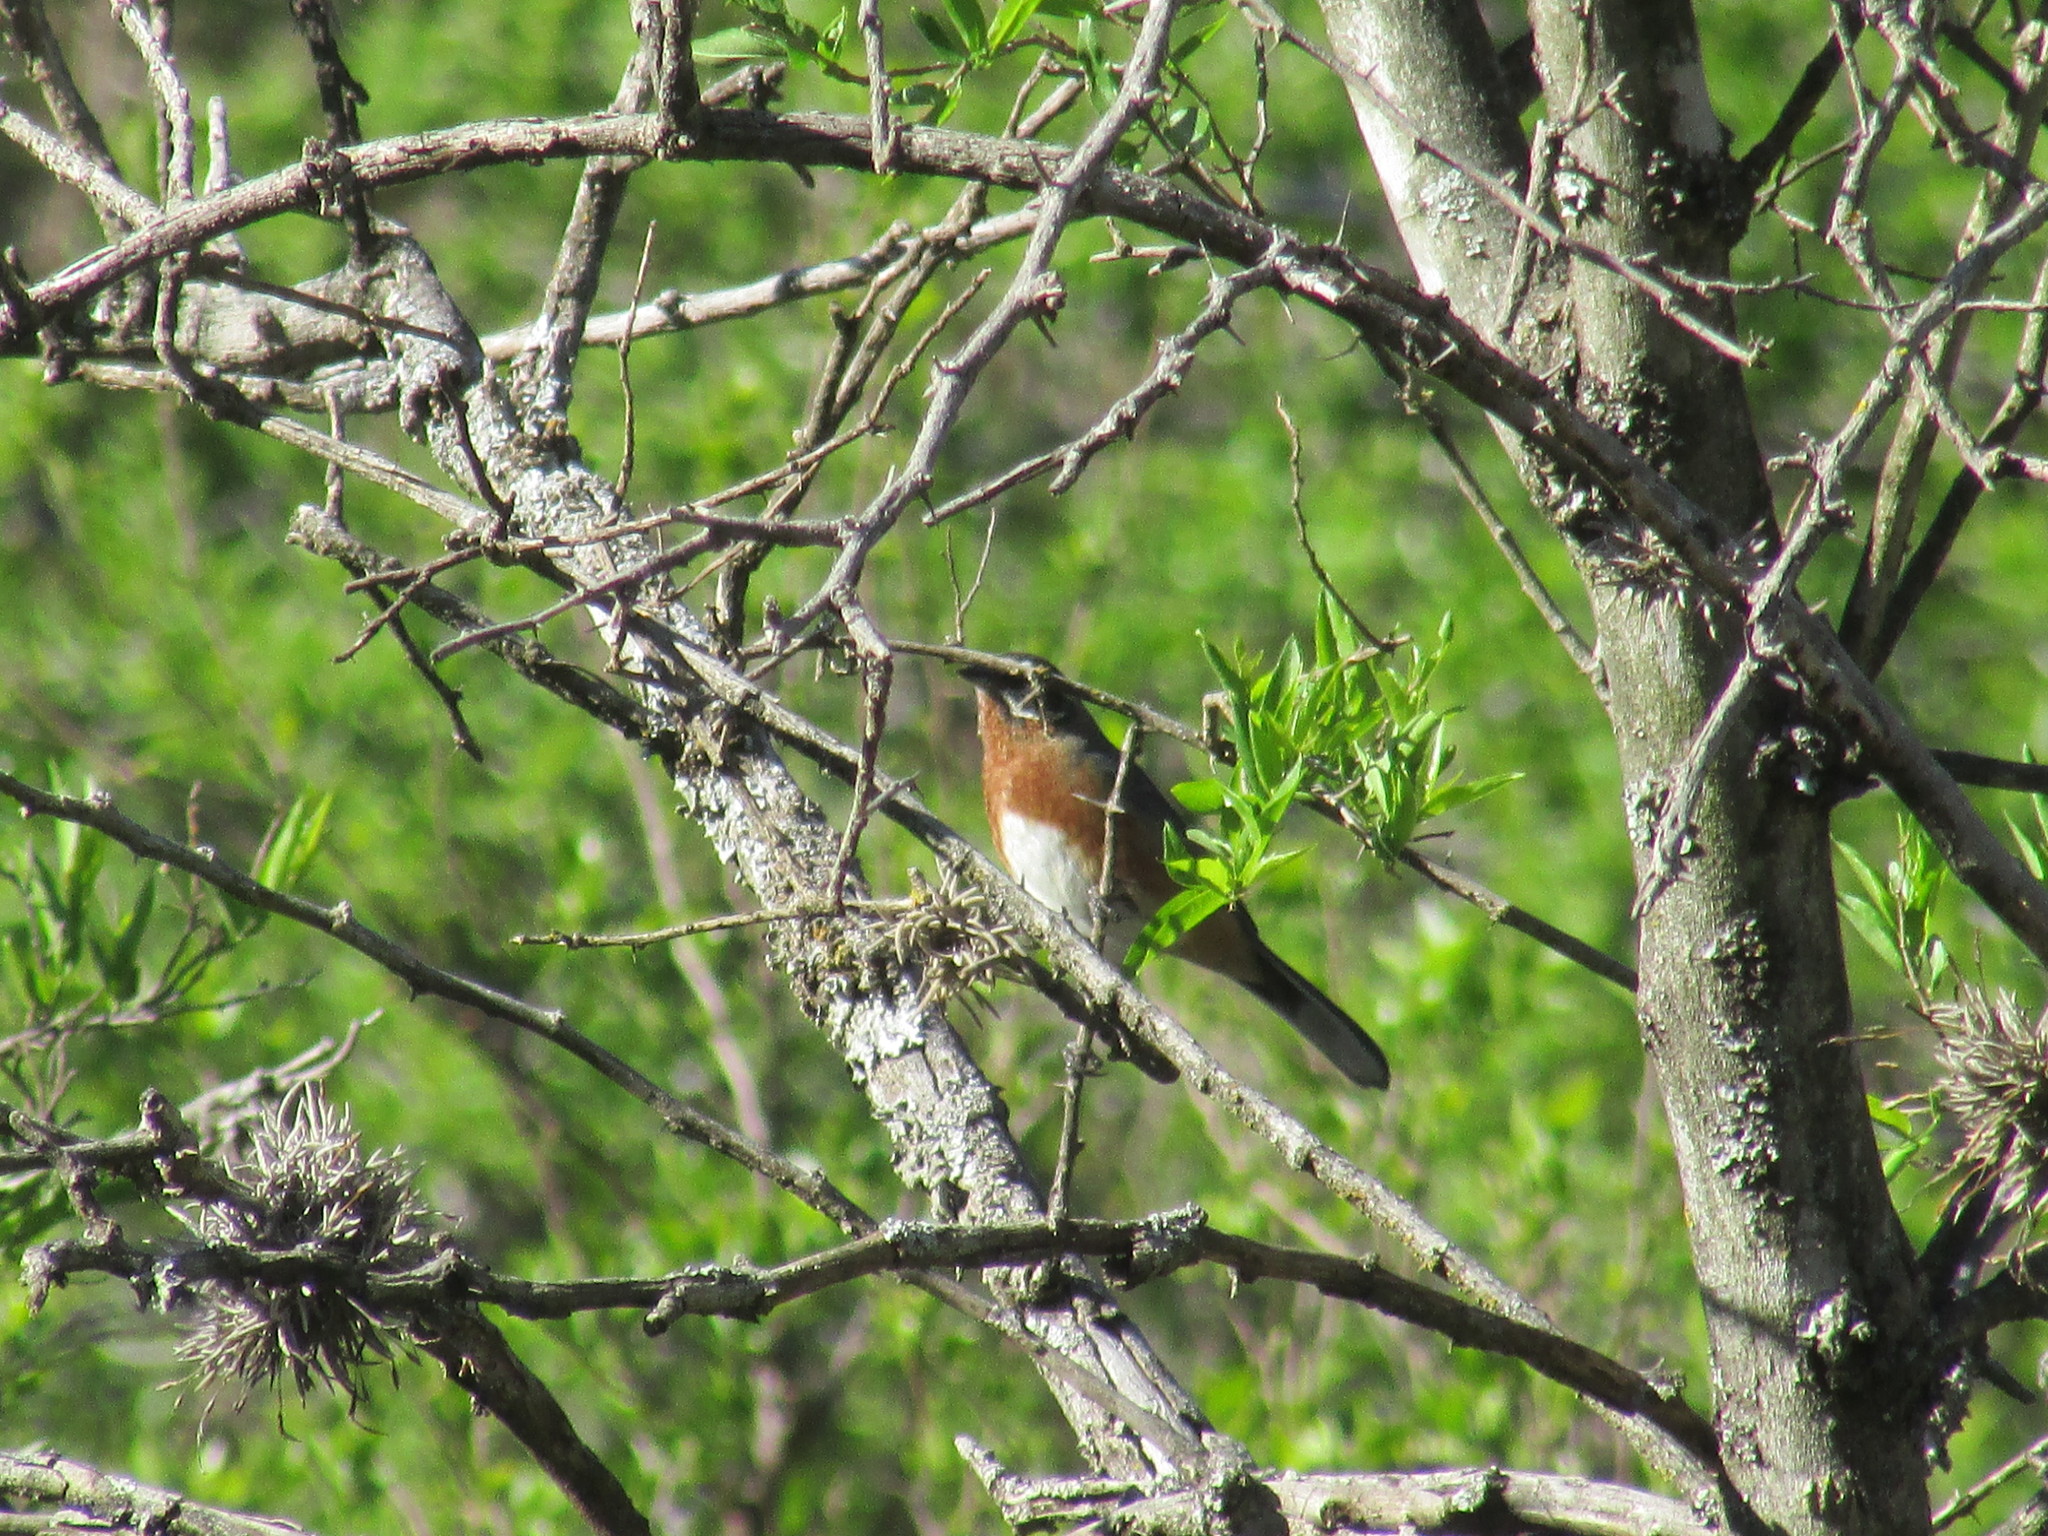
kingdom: Animalia
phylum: Chordata
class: Aves
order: Passeriformes
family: Thraupidae
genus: Poospiza
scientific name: Poospiza whitii
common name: Black-and-chestnut warbling finch
